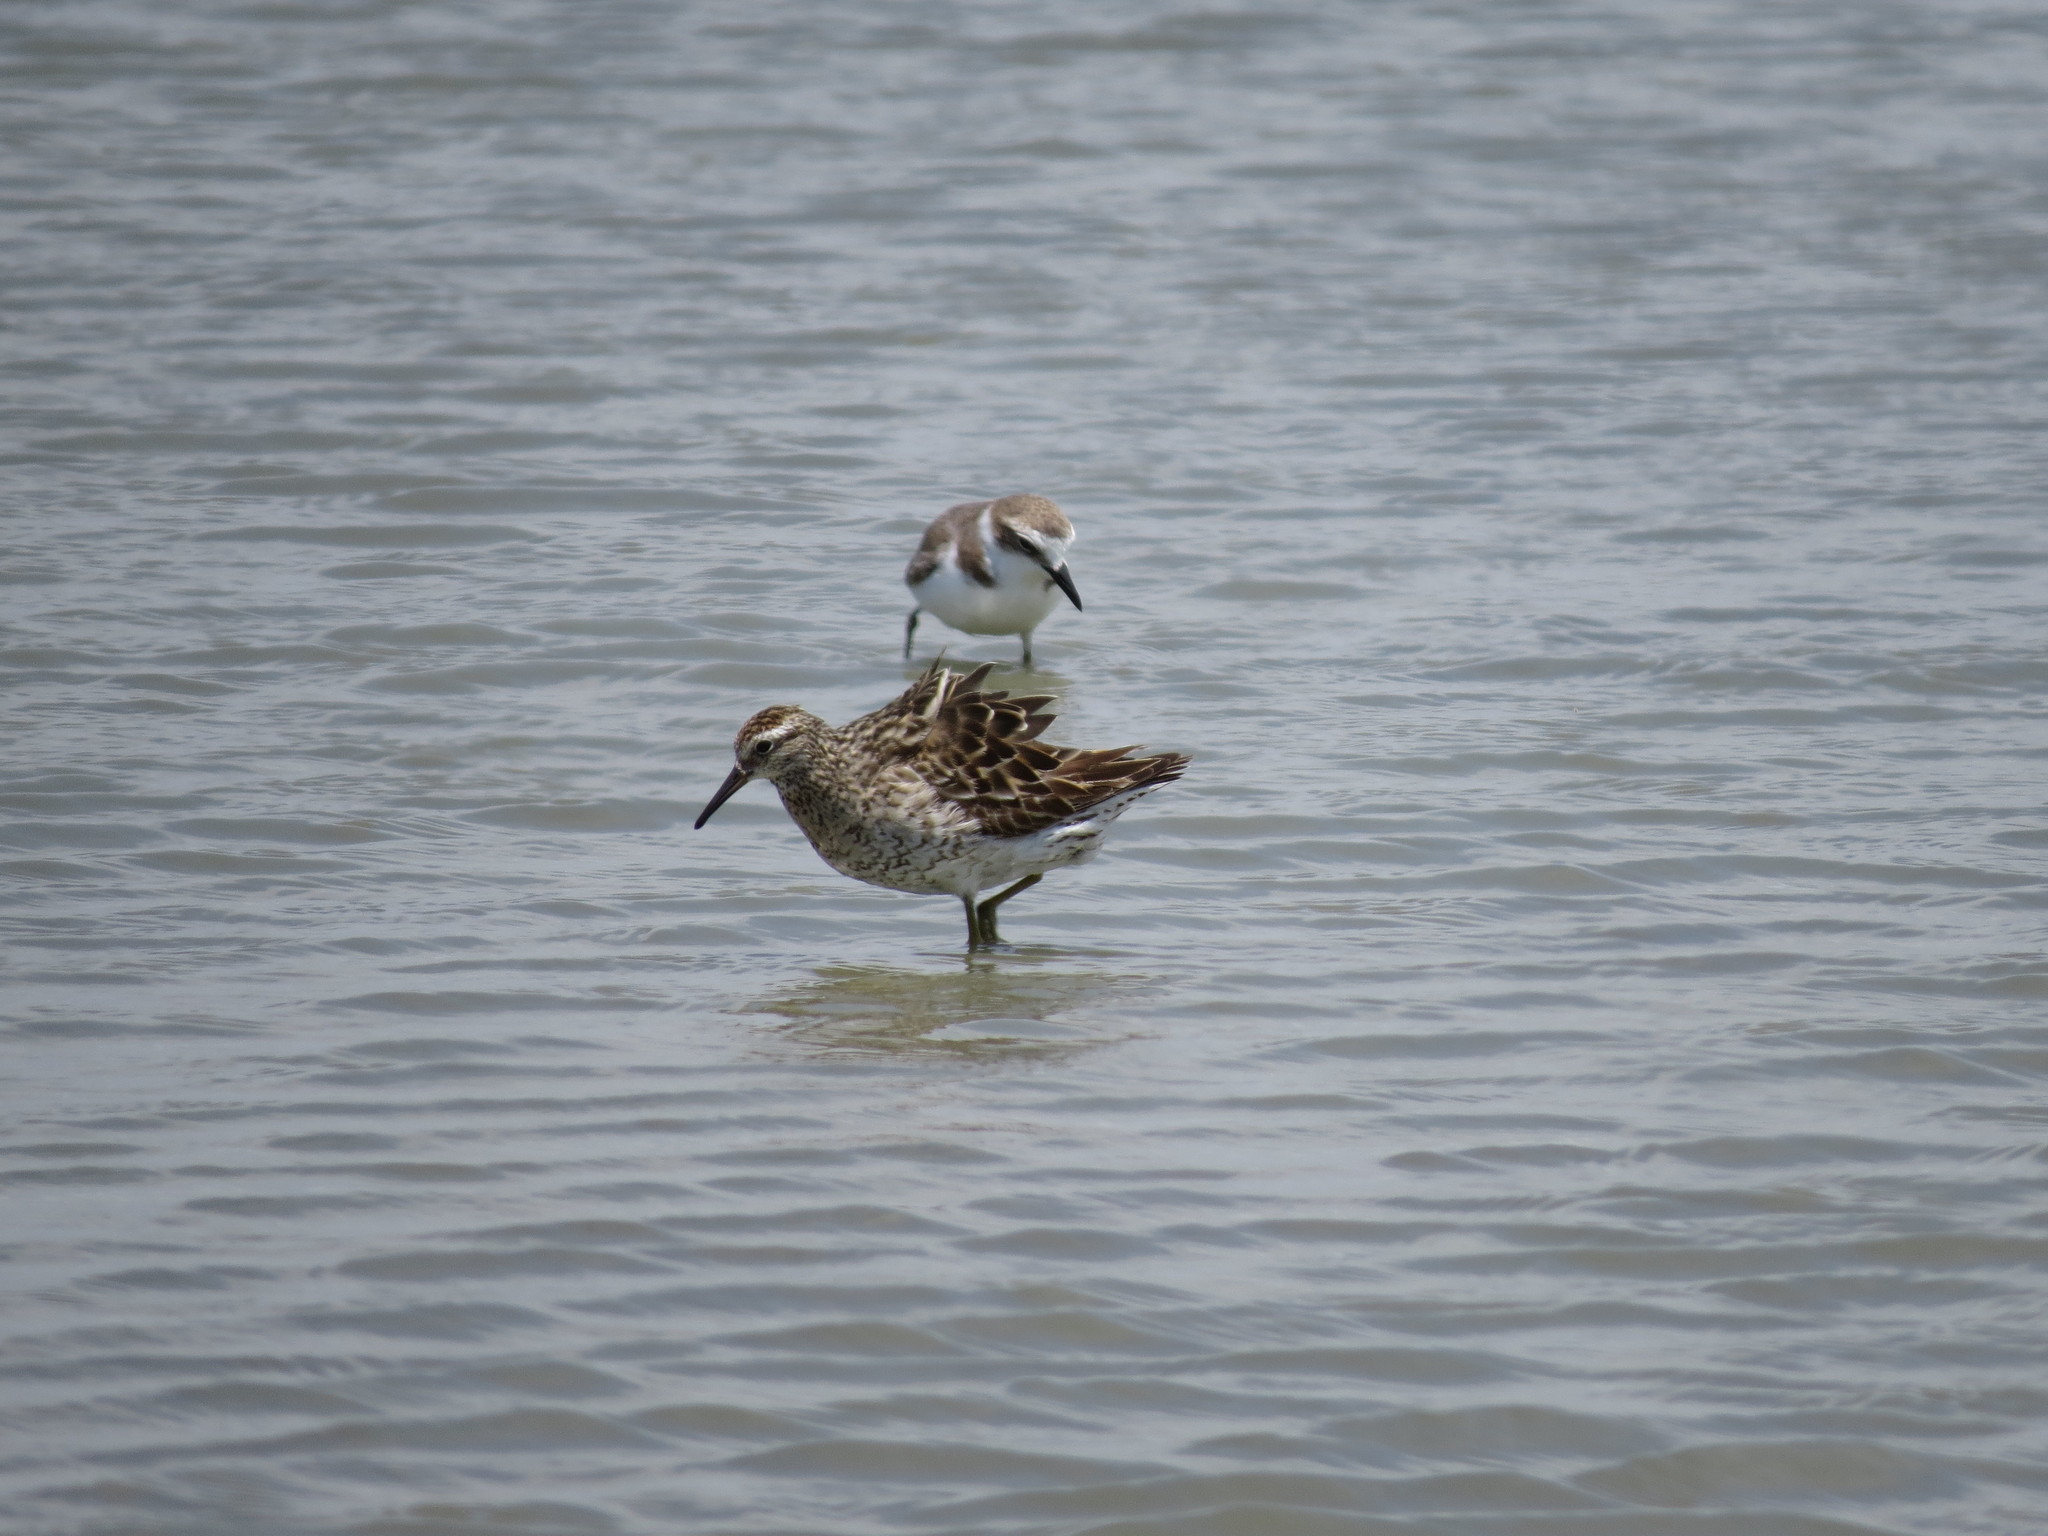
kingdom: Animalia
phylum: Chordata
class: Aves
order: Charadriiformes
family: Scolopacidae
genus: Calidris
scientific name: Calidris acuminata
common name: Sharp-tailed sandpiper
